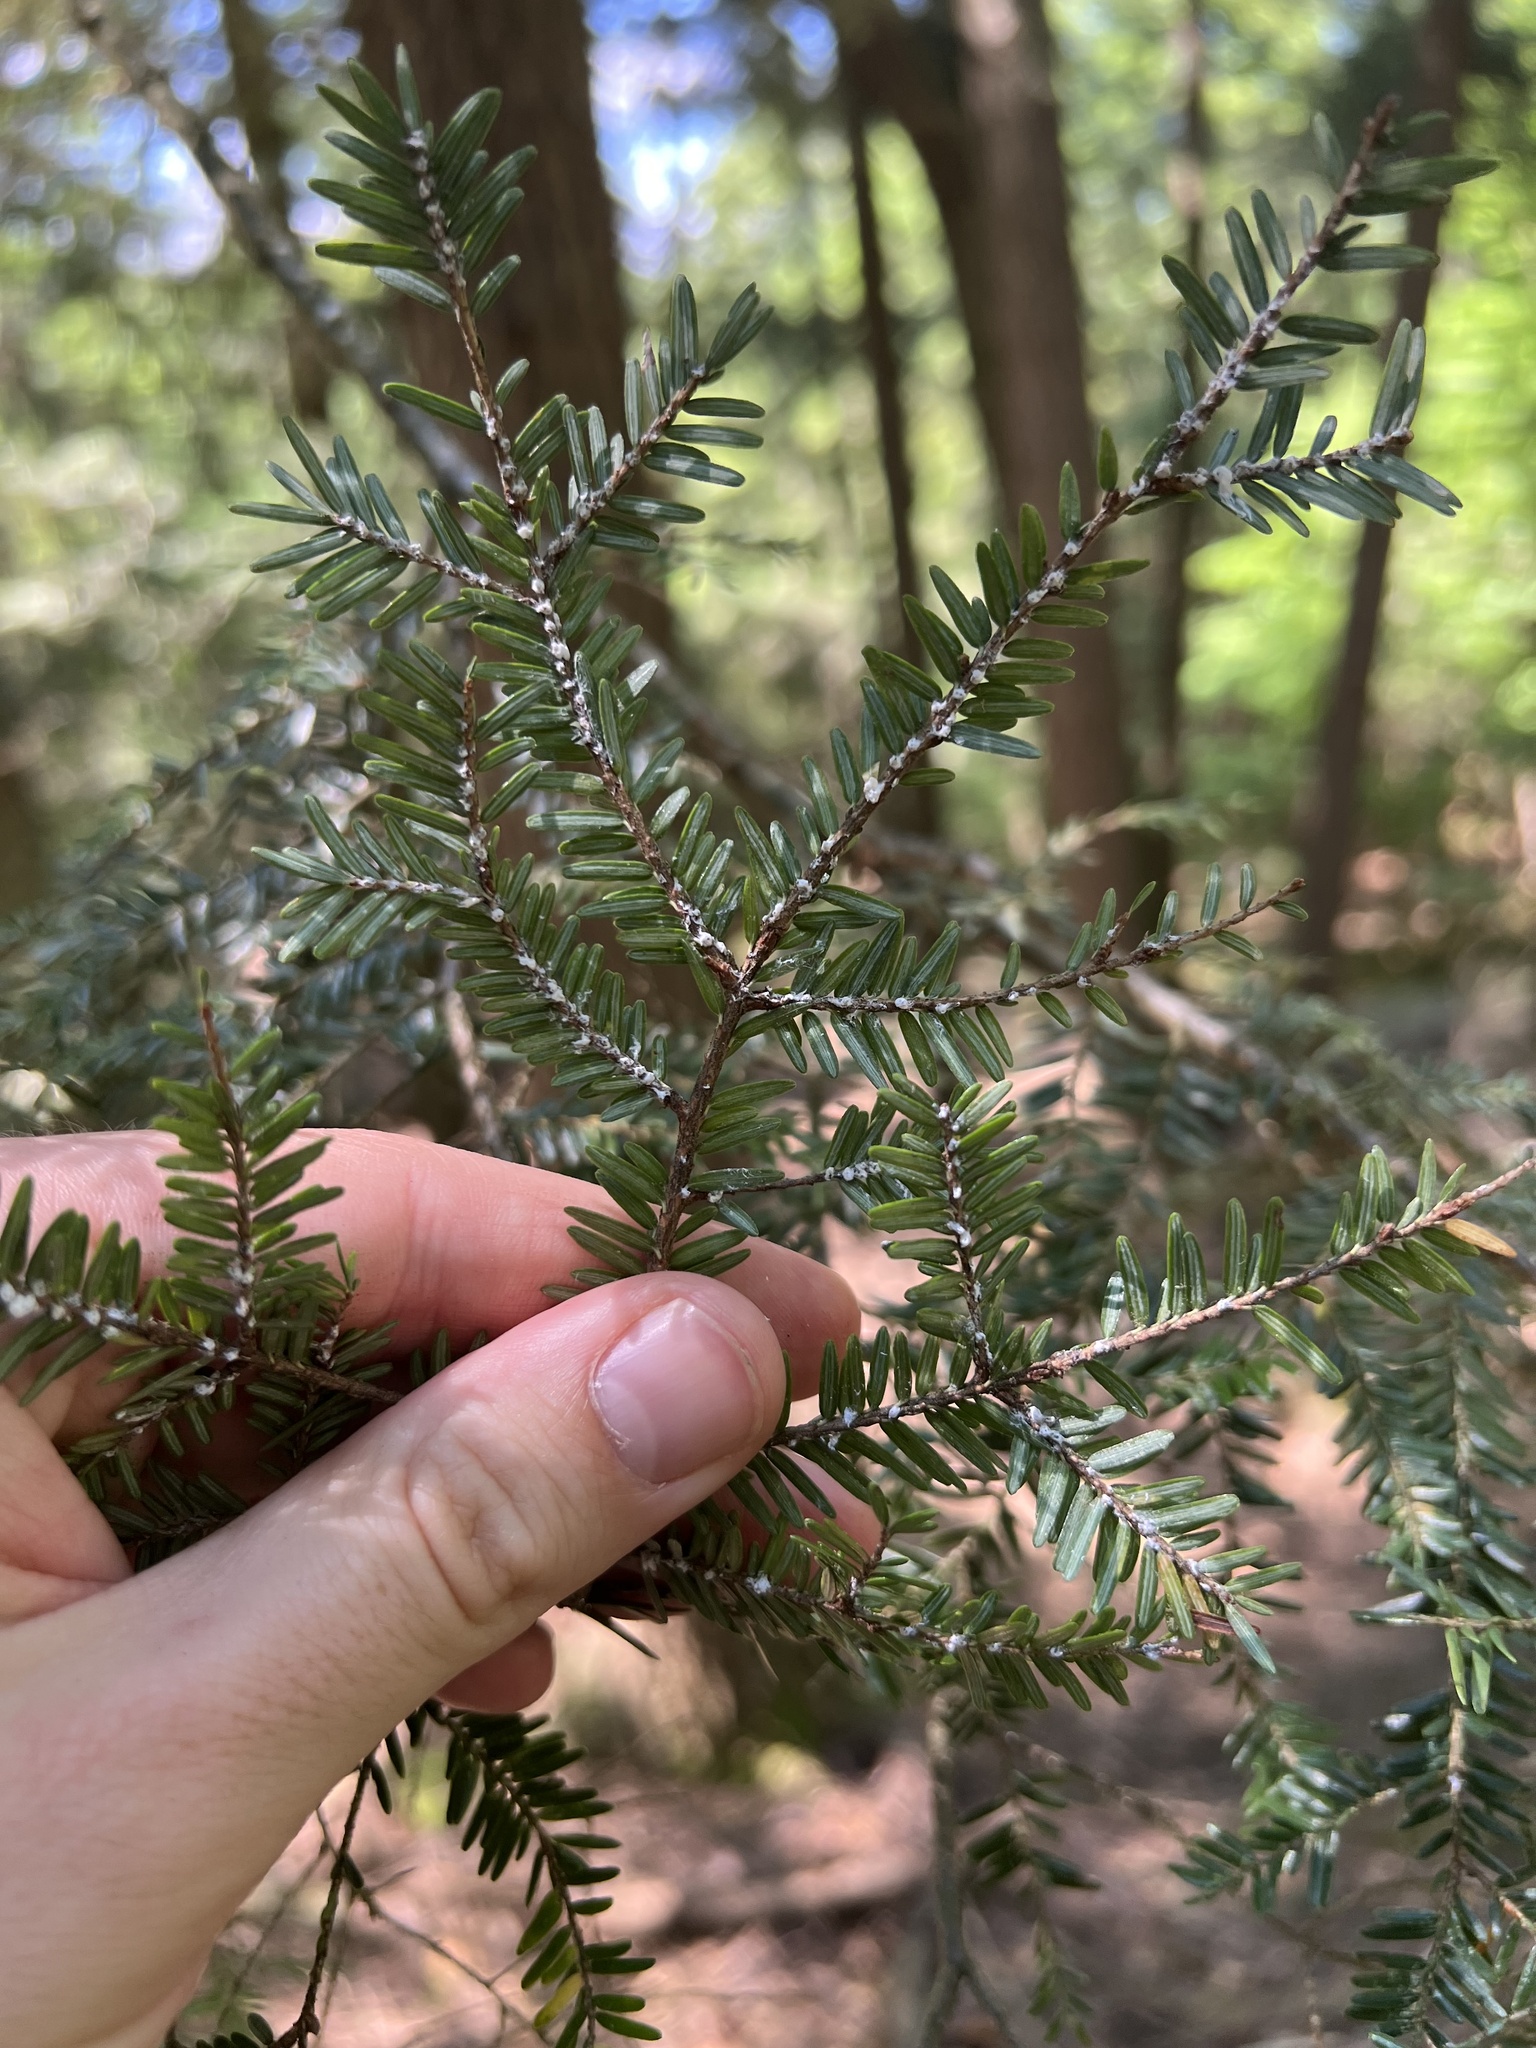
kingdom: Animalia
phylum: Arthropoda
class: Insecta
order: Hemiptera
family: Adelgidae
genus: Adelges
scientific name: Adelges tsugae
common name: Hemlock woolly adelgid
